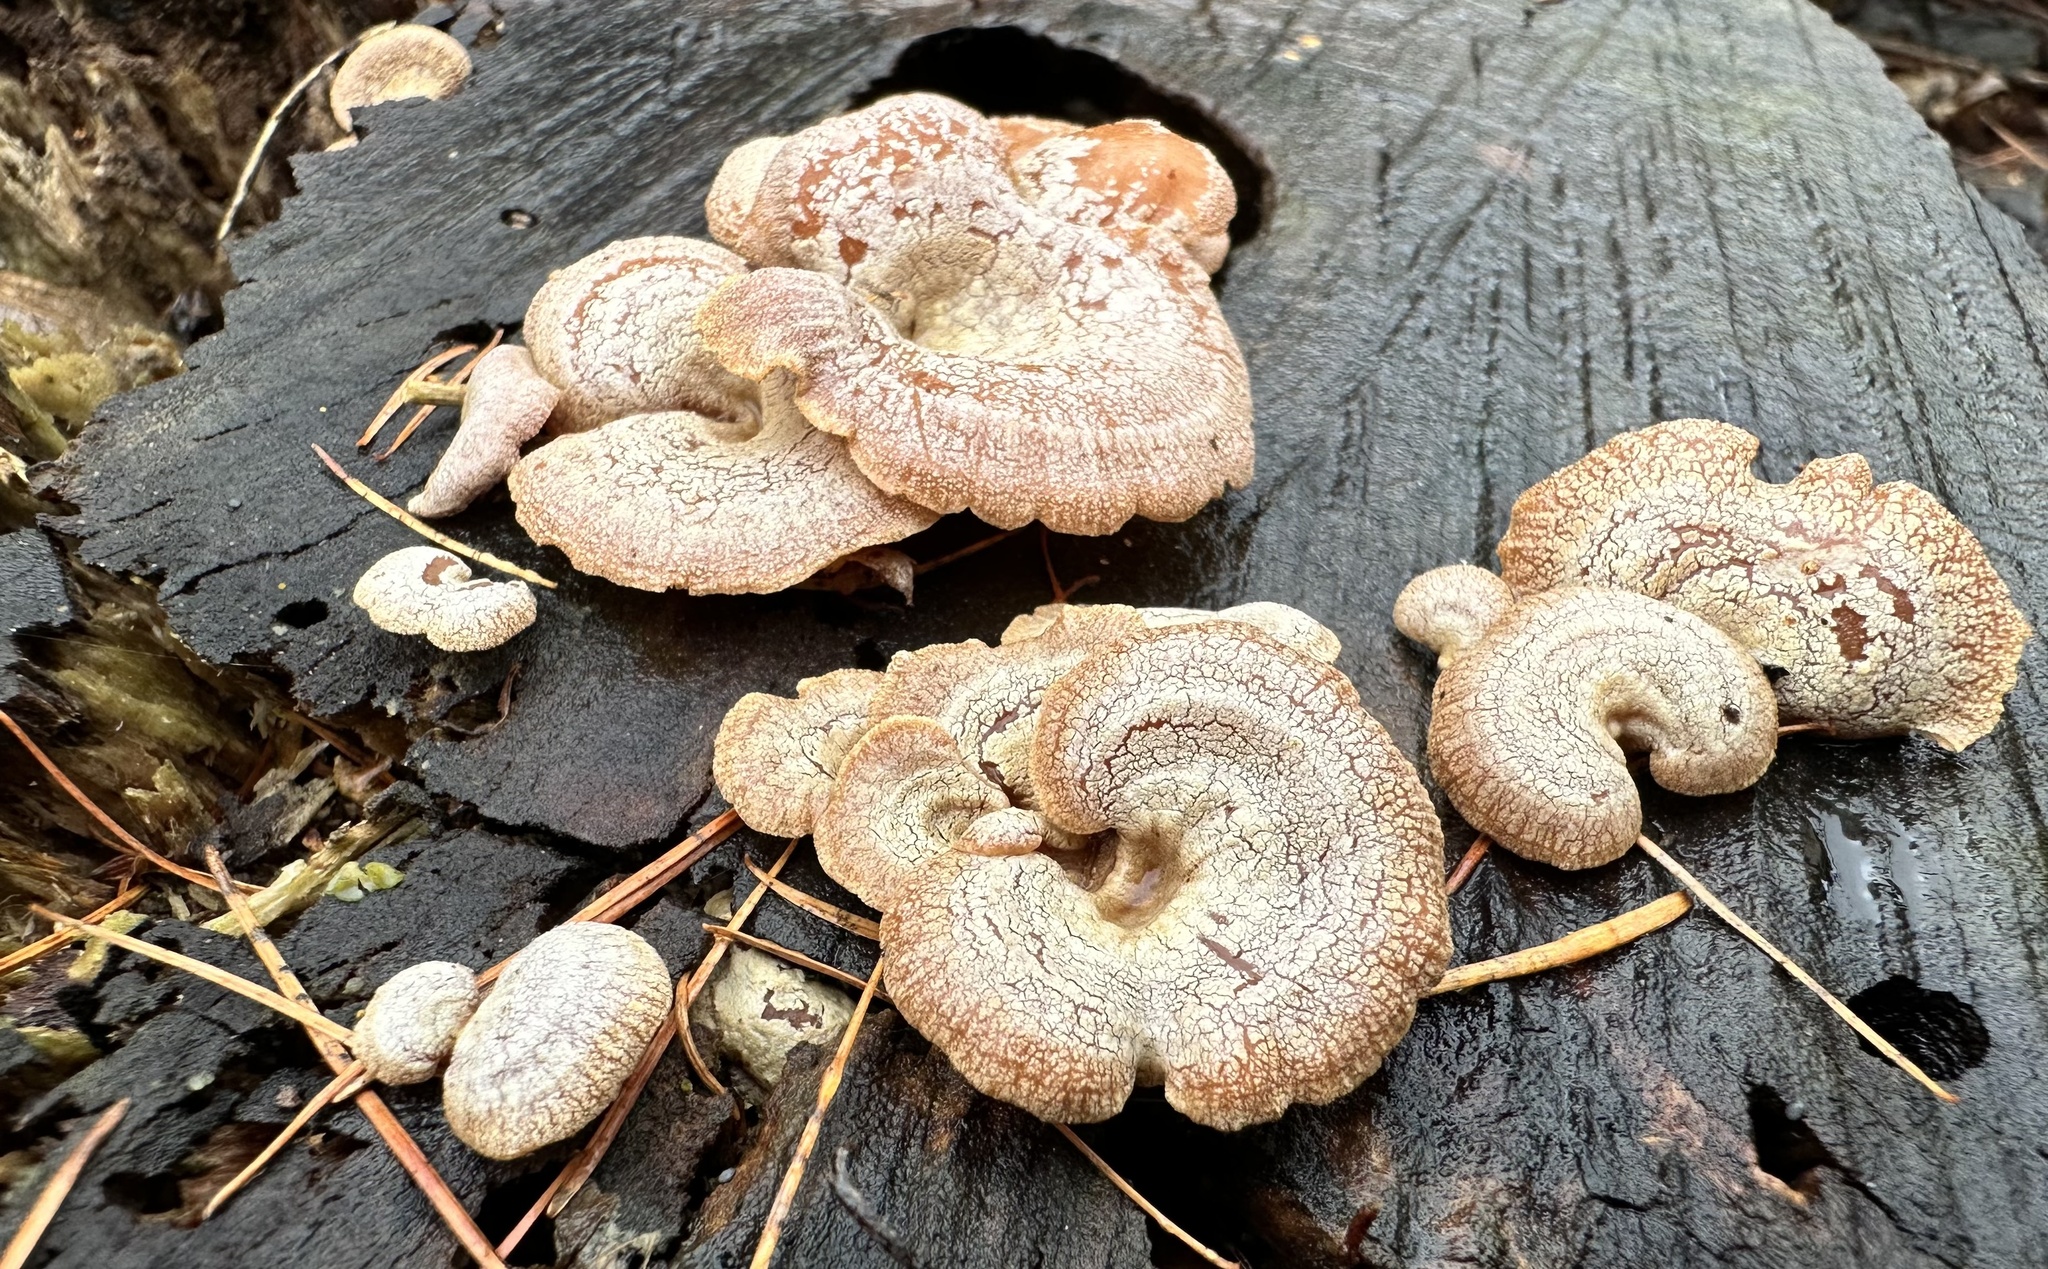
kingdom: Fungi
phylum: Basidiomycota
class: Agaricomycetes
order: Agaricales
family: Mycenaceae
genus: Panellus
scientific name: Panellus stipticus
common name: Bitter oysterling
